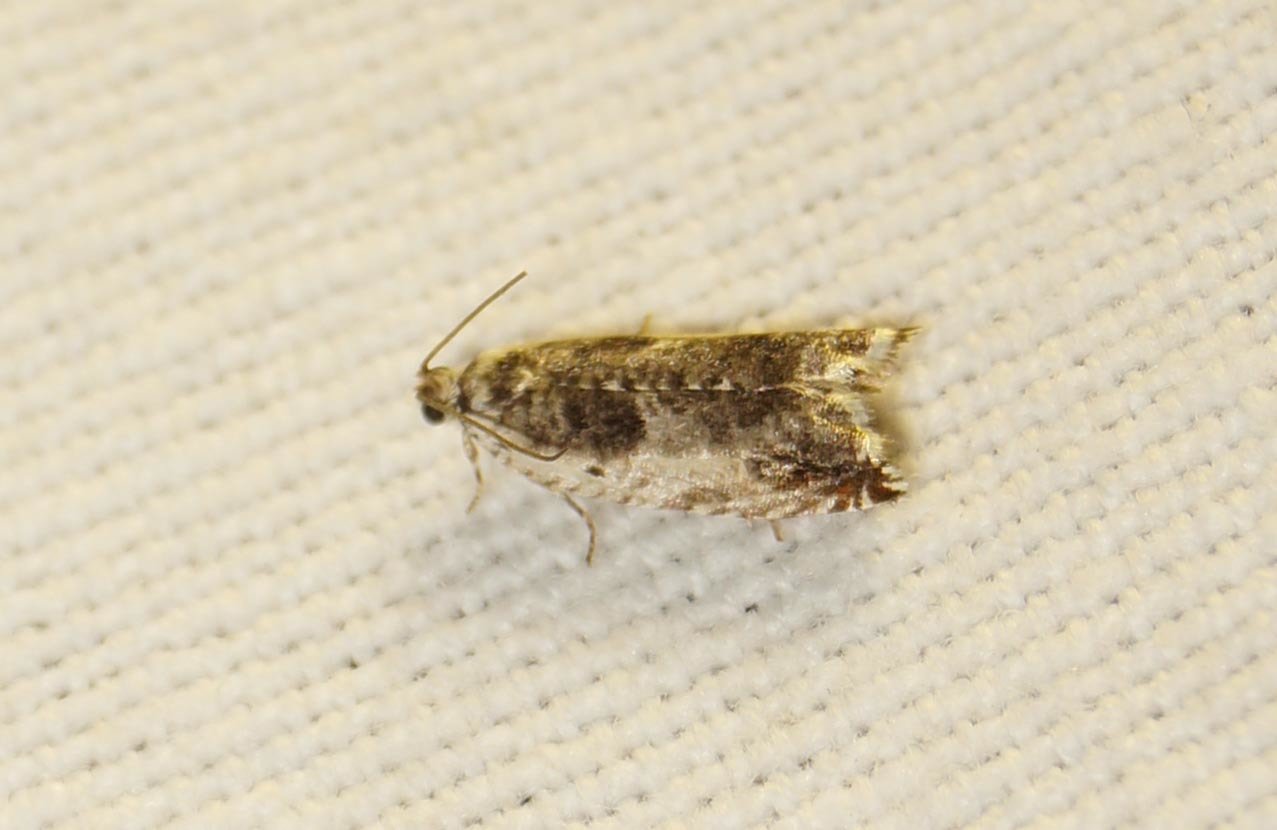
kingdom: Animalia
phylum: Arthropoda
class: Insecta
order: Lepidoptera
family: Tortricidae
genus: Ancylis
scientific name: Ancylis laetana
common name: Aspen roller
